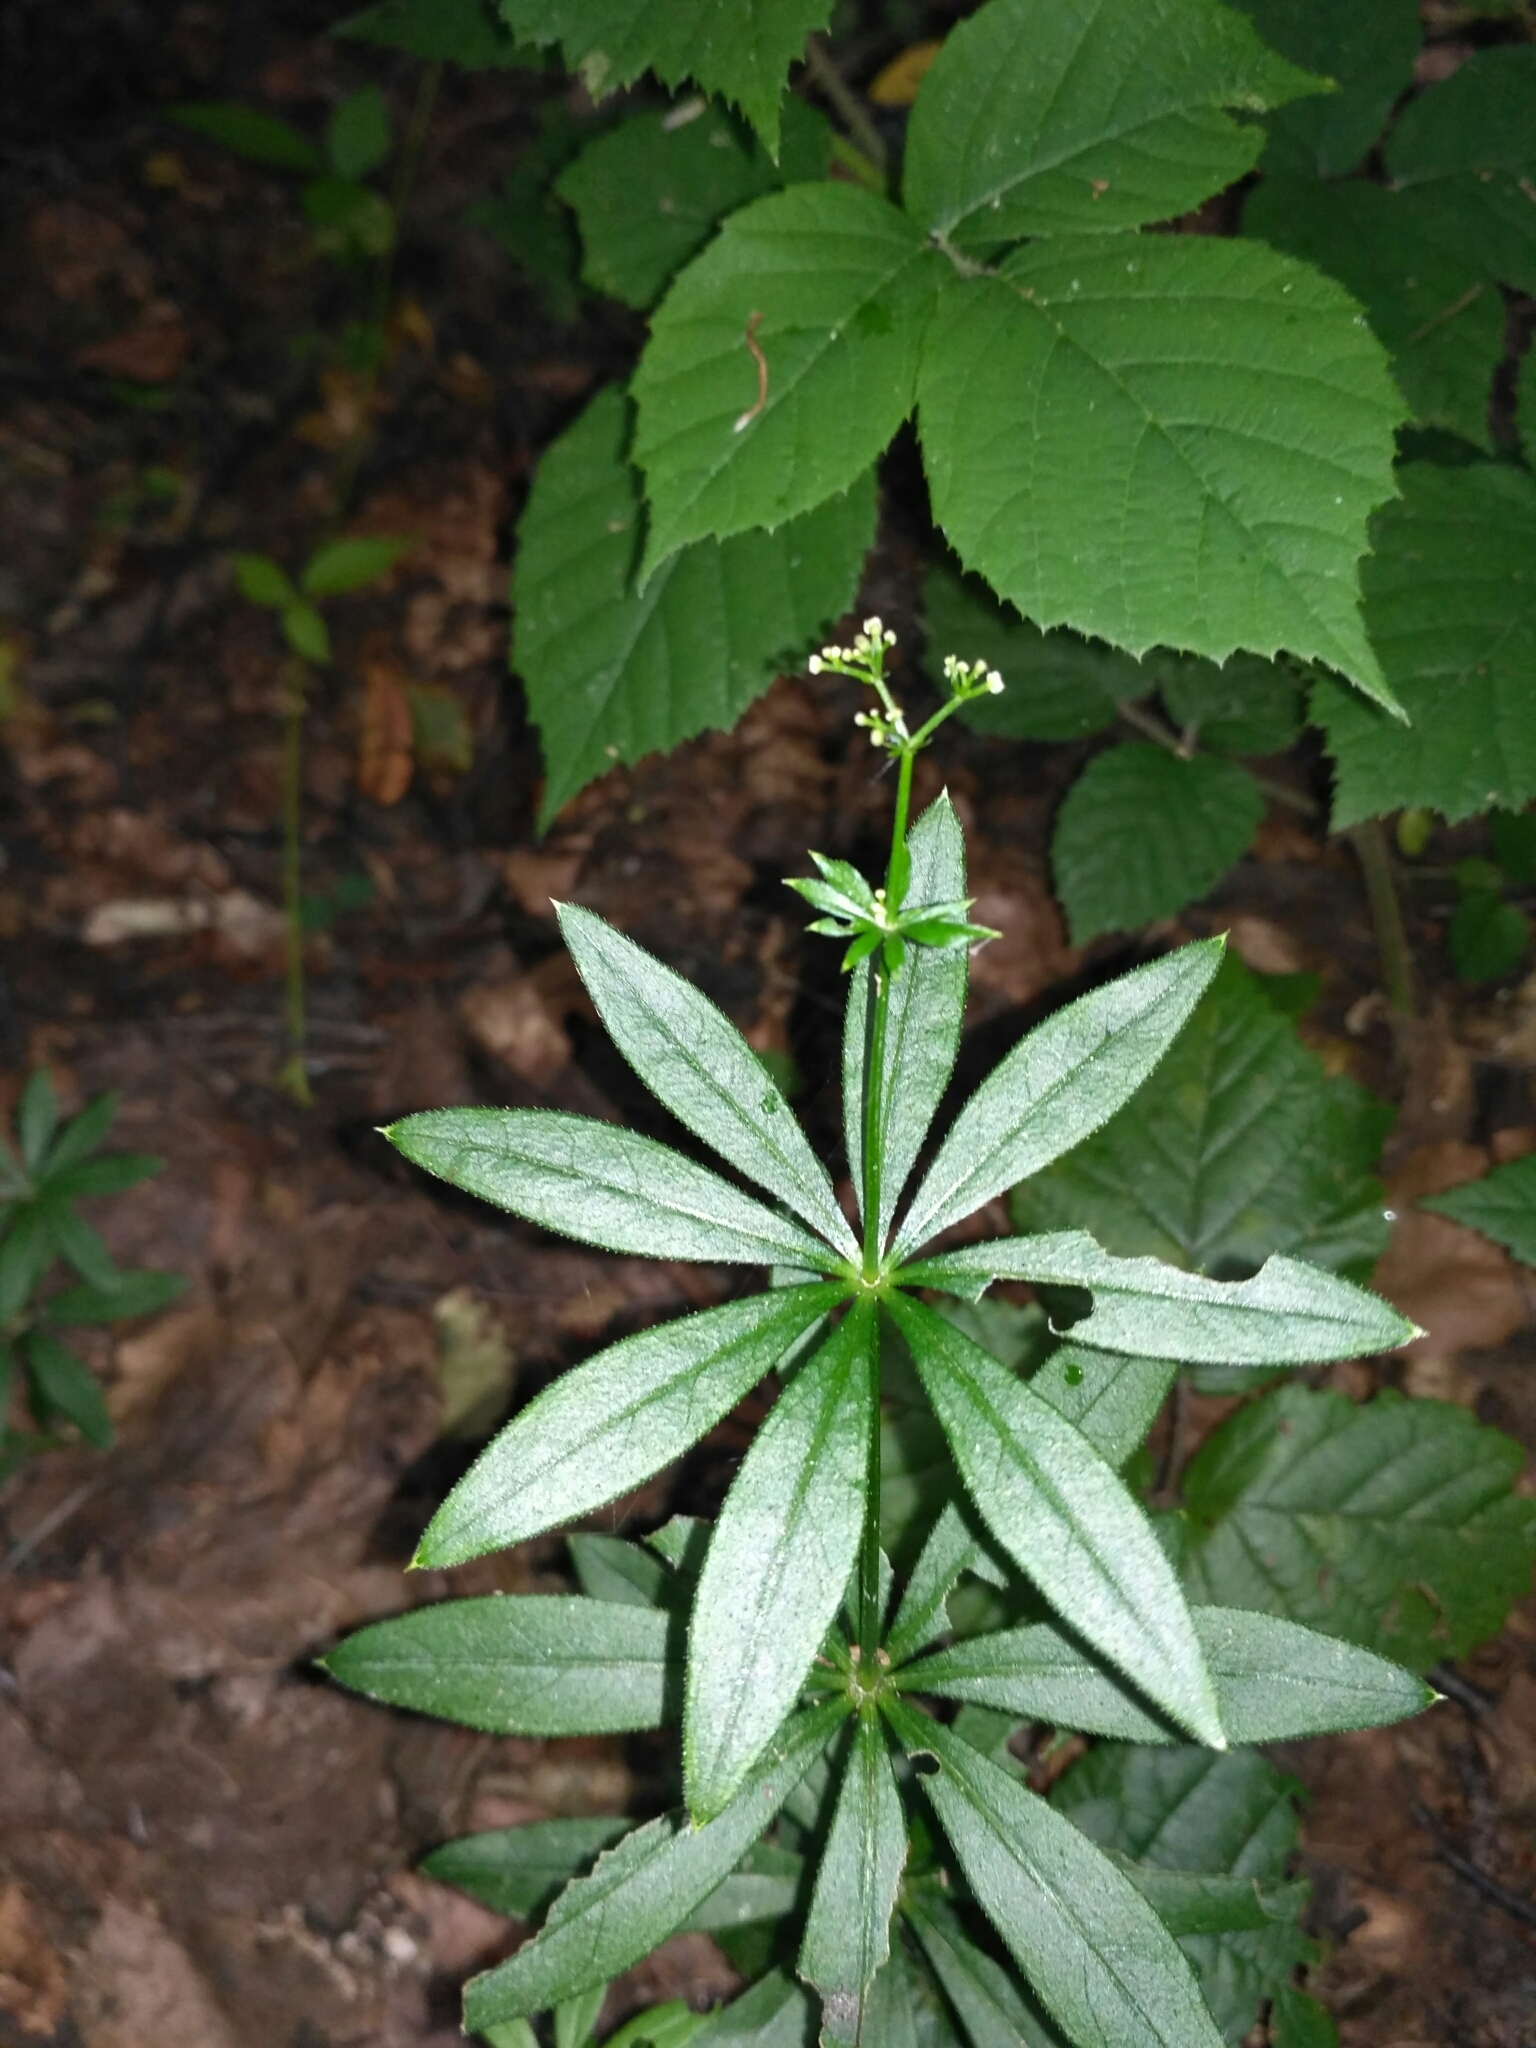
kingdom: Plantae
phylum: Tracheophyta
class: Magnoliopsida
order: Gentianales
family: Rubiaceae
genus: Galium
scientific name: Galium odoratum
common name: Sweet woodruff
